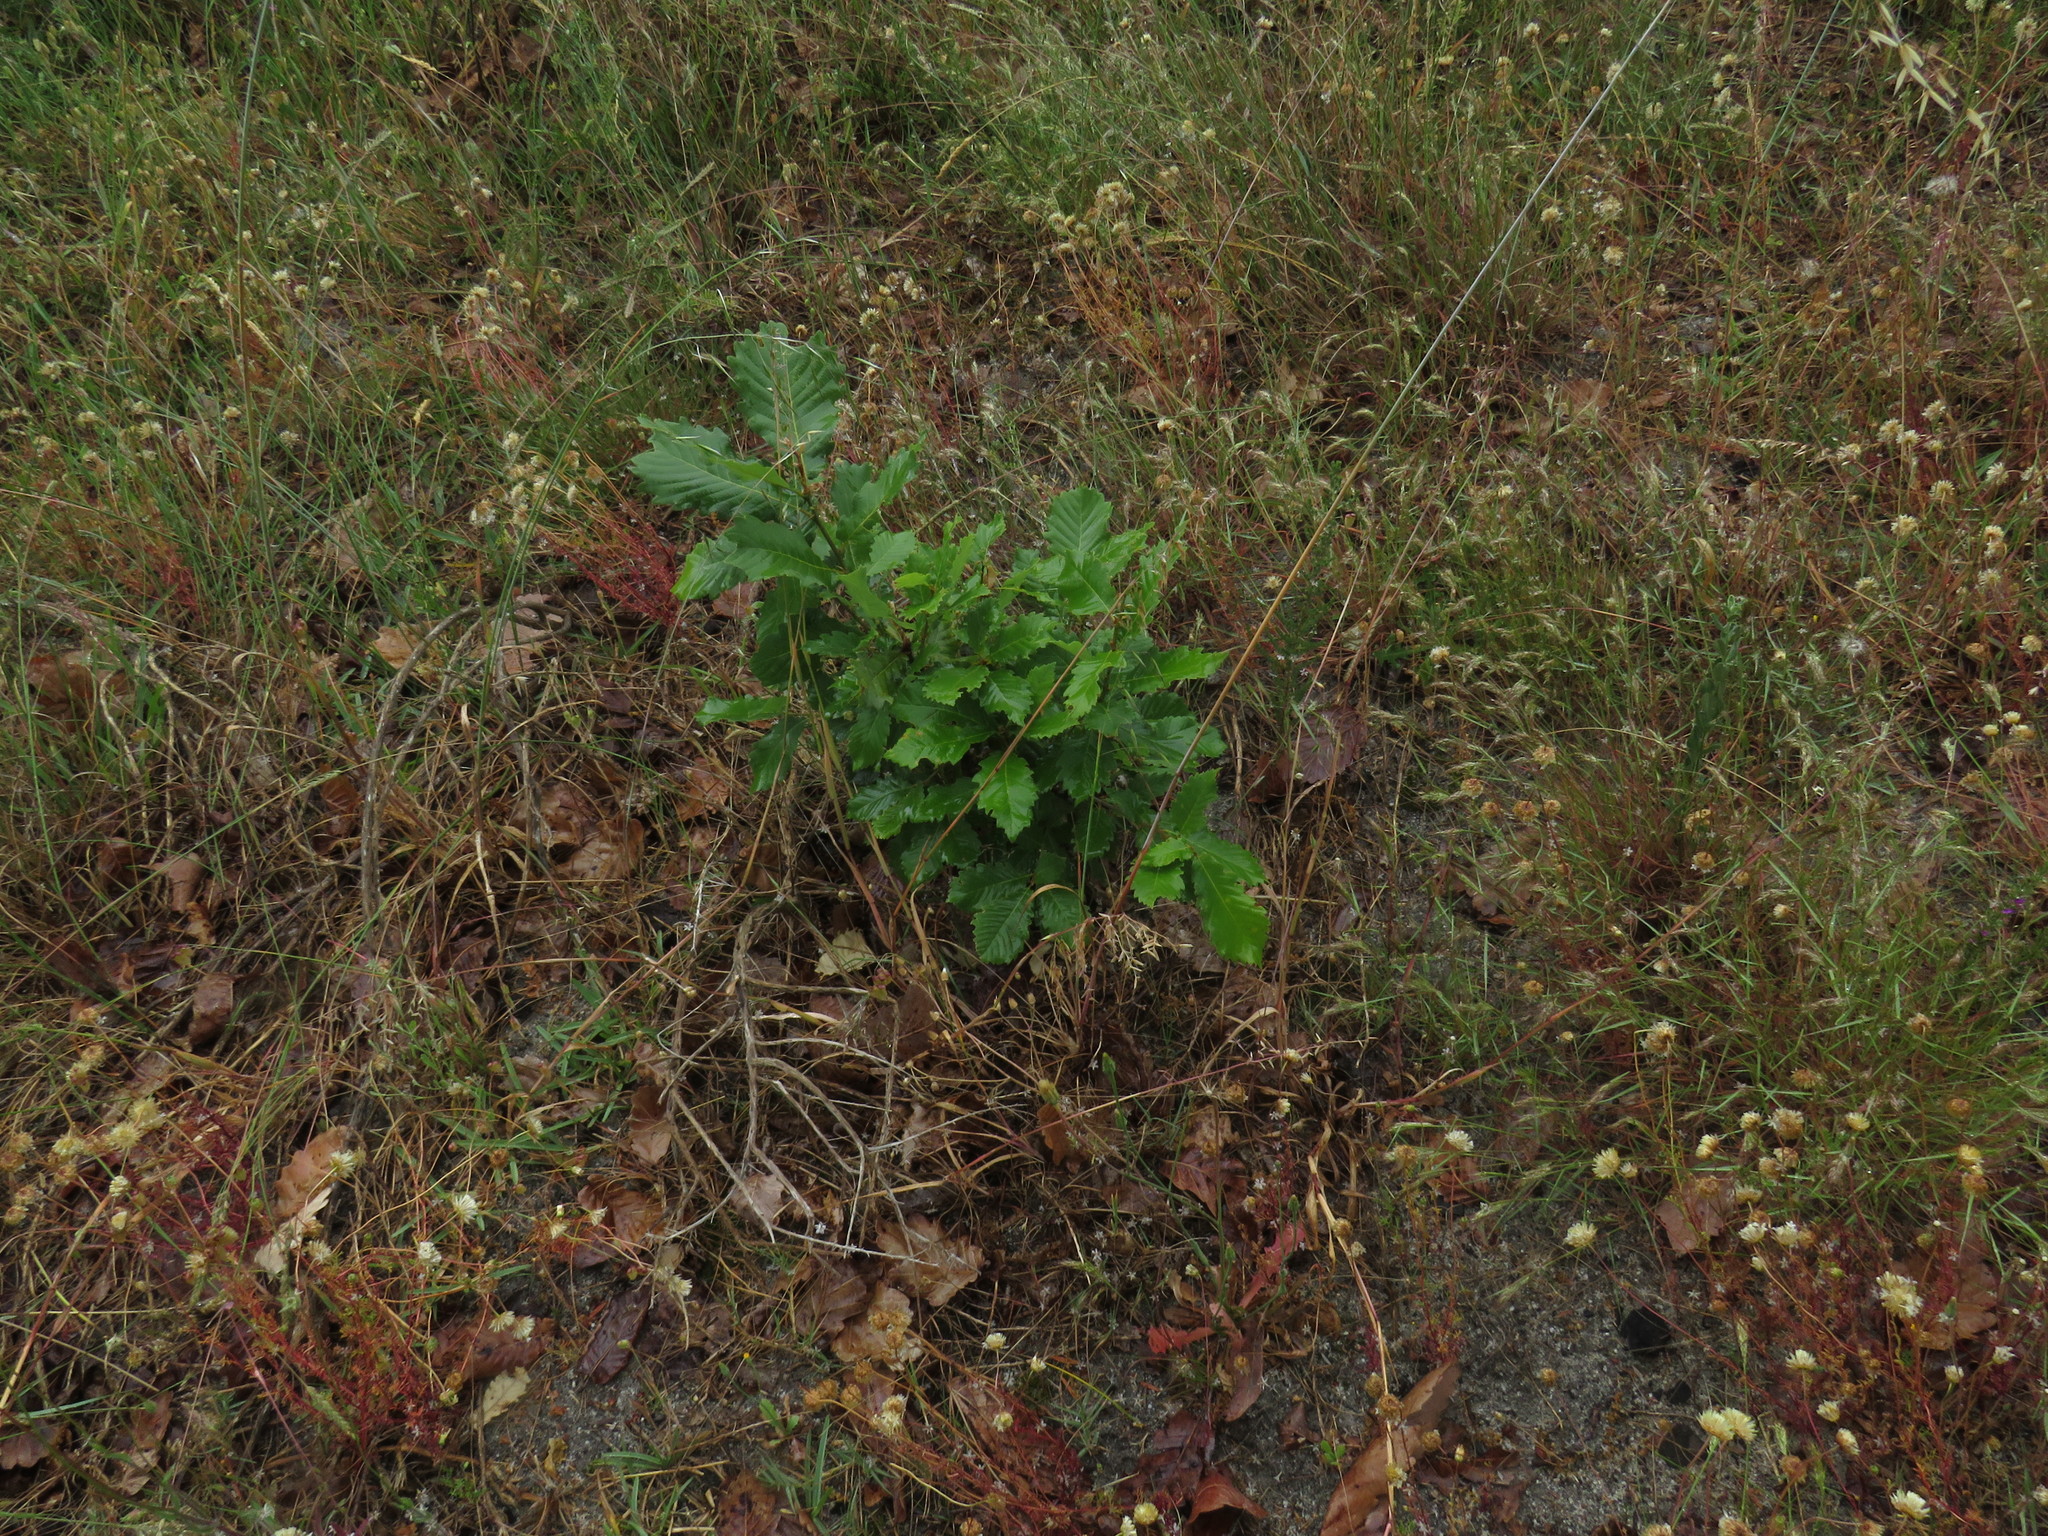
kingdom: Plantae
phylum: Tracheophyta
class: Magnoliopsida
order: Fagales
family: Fagaceae
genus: Quercus
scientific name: Quercus canariensis
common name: Algerian oak
